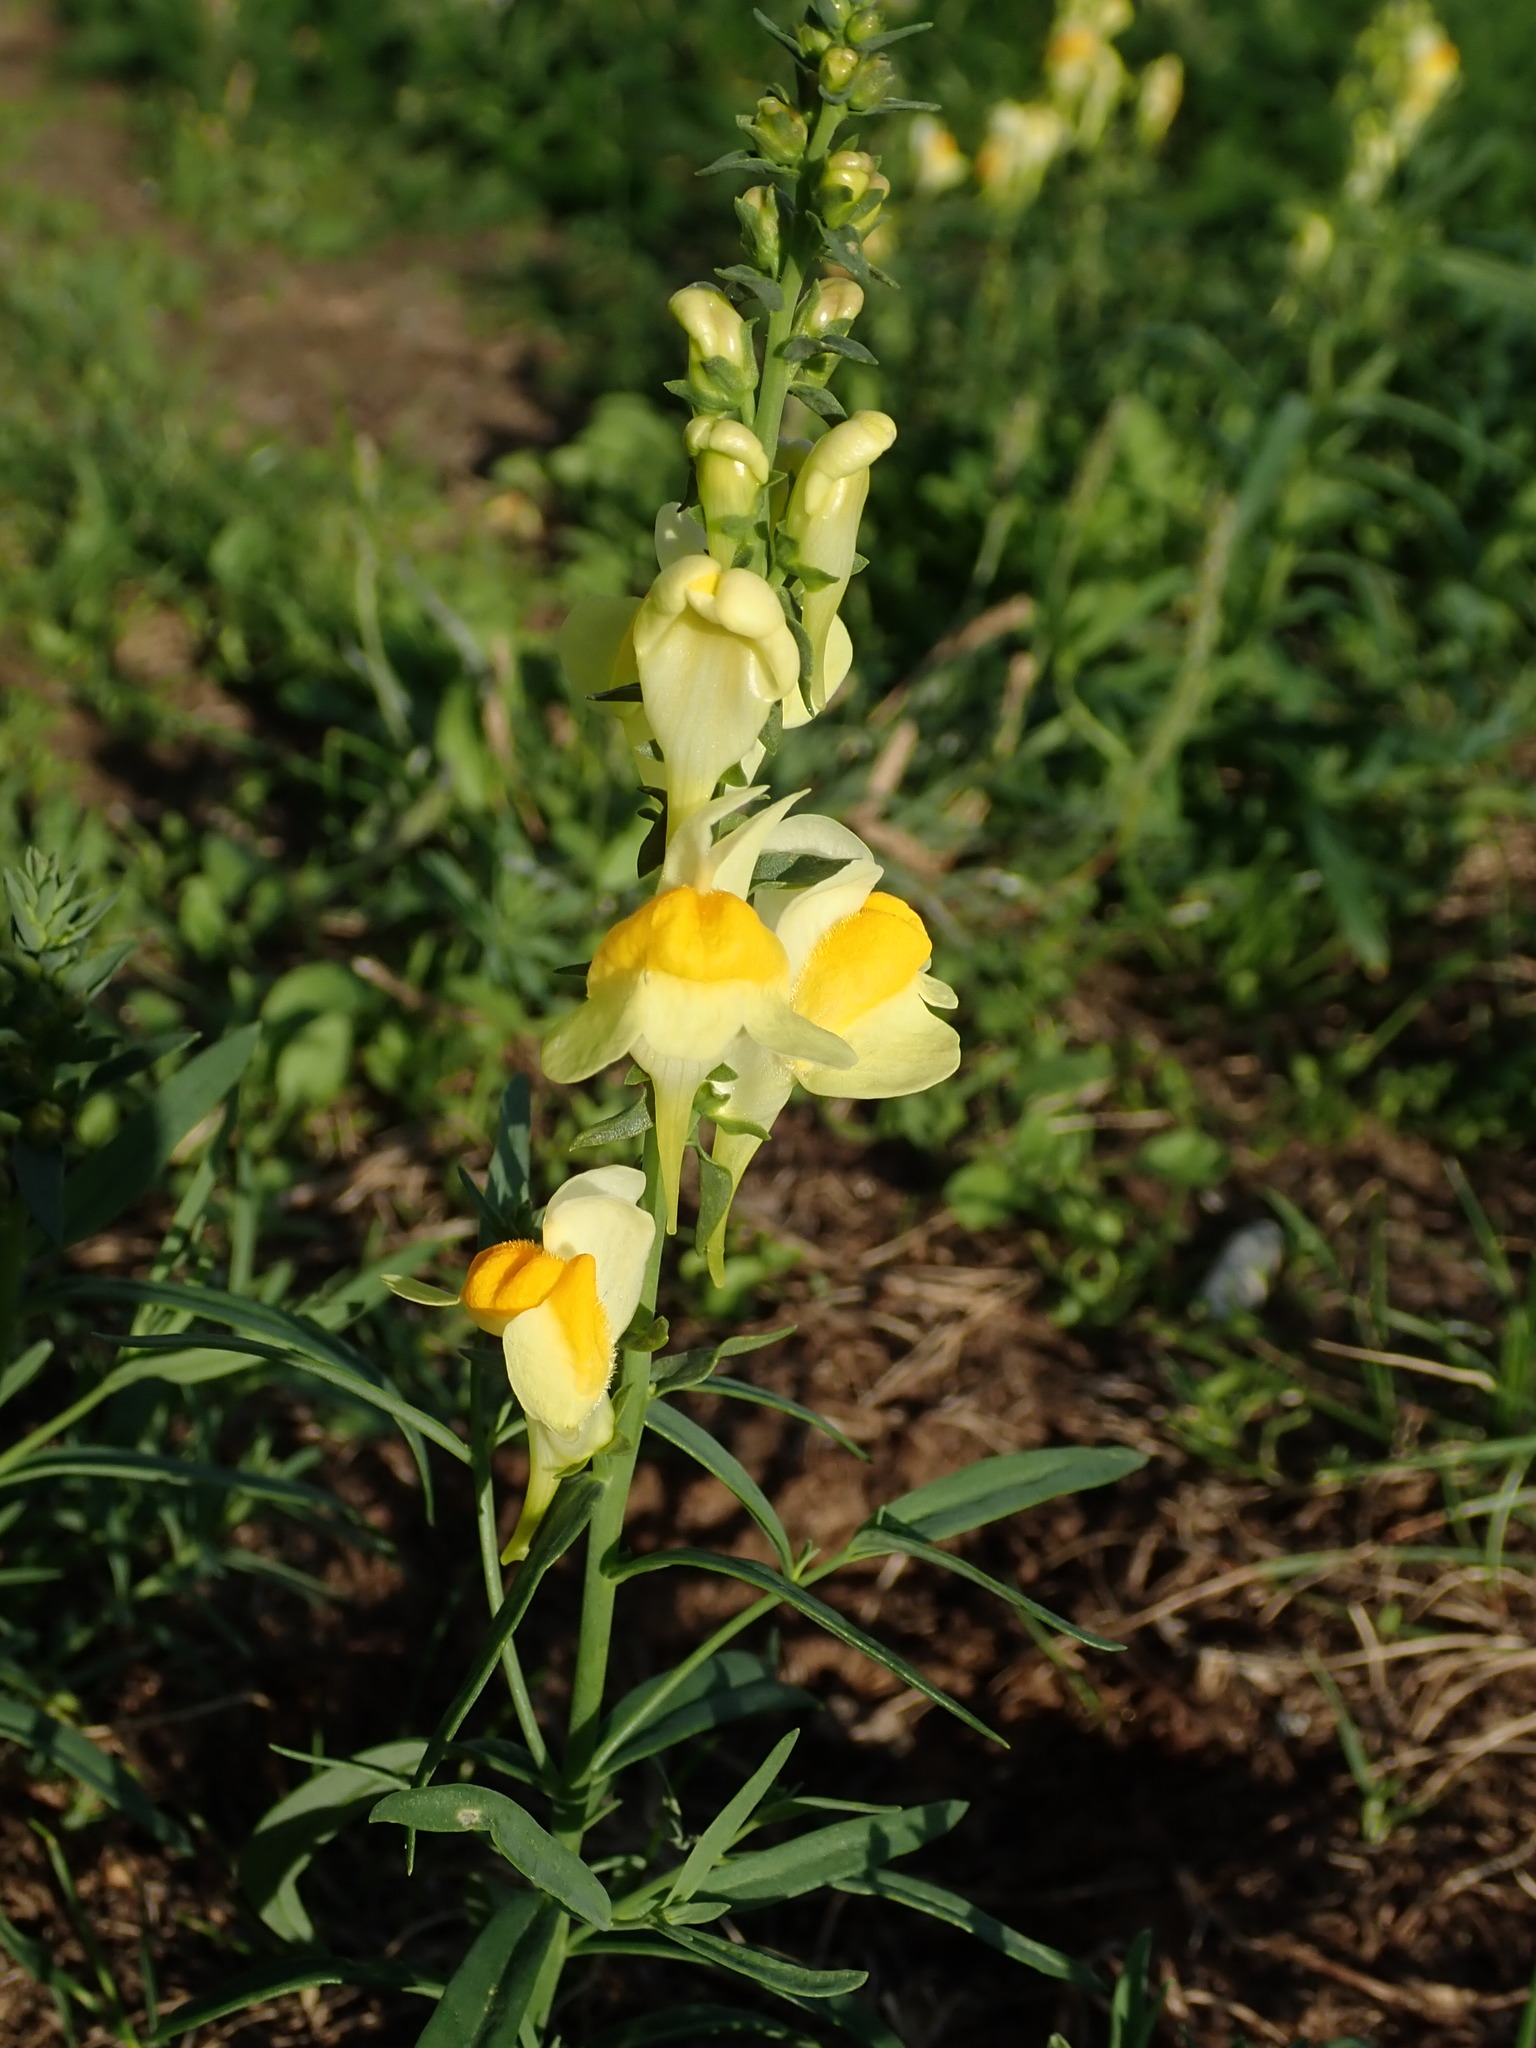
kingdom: Plantae
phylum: Tracheophyta
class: Magnoliopsida
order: Lamiales
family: Plantaginaceae
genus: Linaria
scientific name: Linaria vulgaris
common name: Butter and eggs
